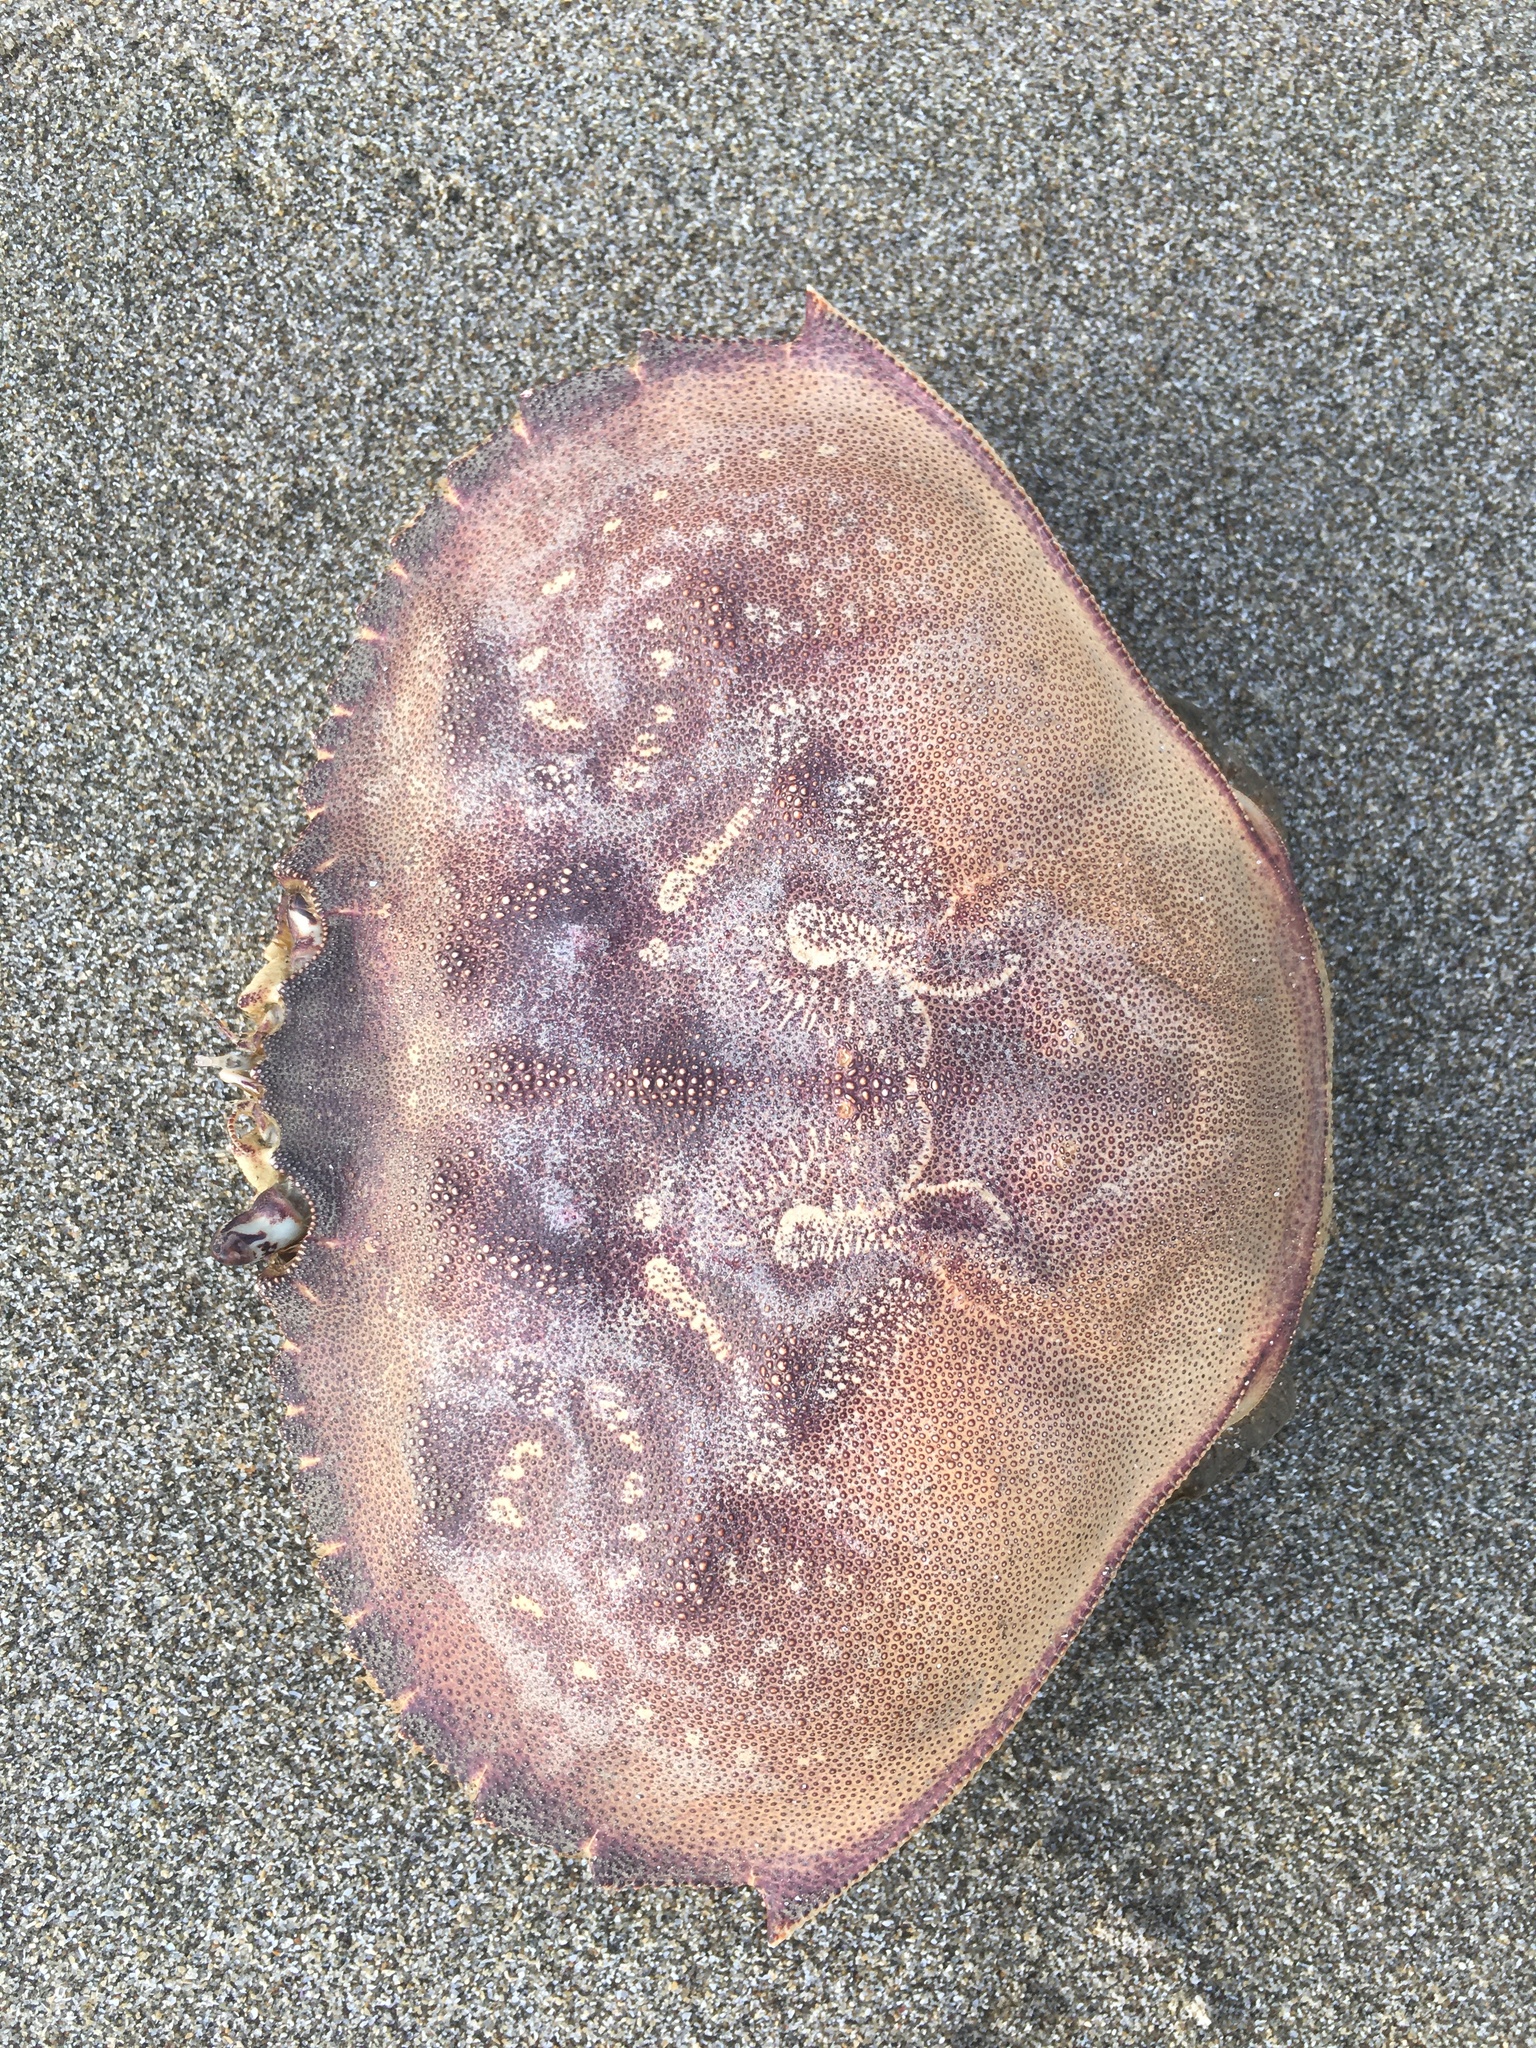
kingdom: Animalia
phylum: Arthropoda
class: Malacostraca
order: Decapoda
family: Cancridae
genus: Metacarcinus
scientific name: Metacarcinus magister
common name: Californian crab
